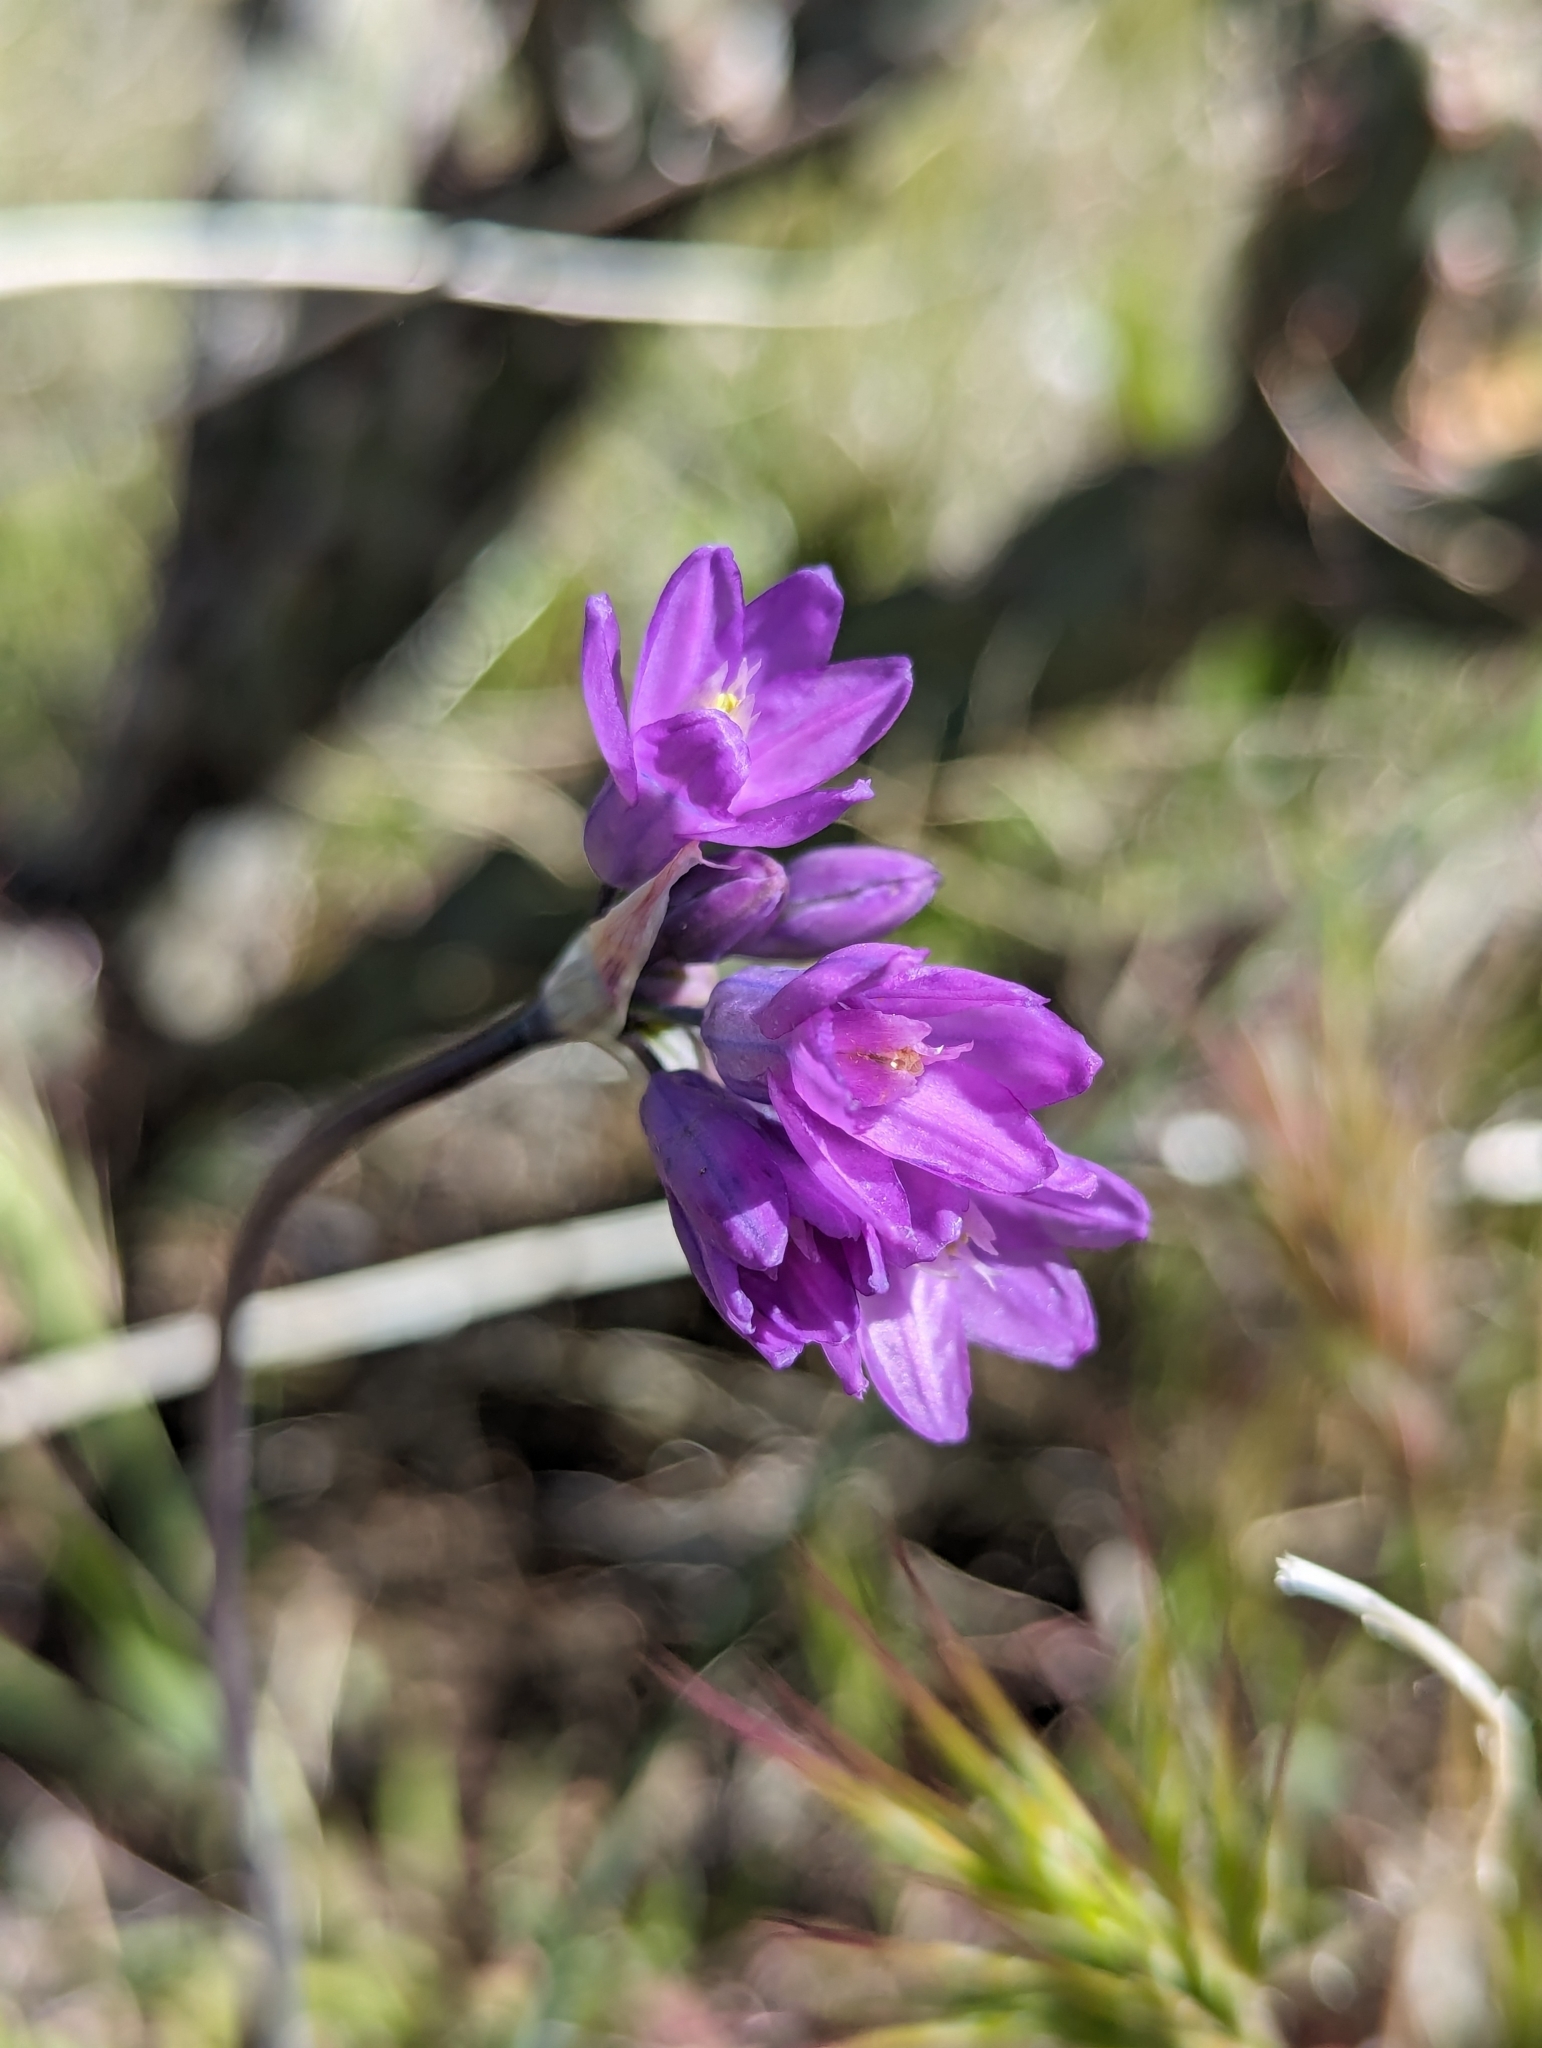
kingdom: Plantae
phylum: Tracheophyta
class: Liliopsida
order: Asparagales
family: Asparagaceae
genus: Dipterostemon
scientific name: Dipterostemon capitatus
